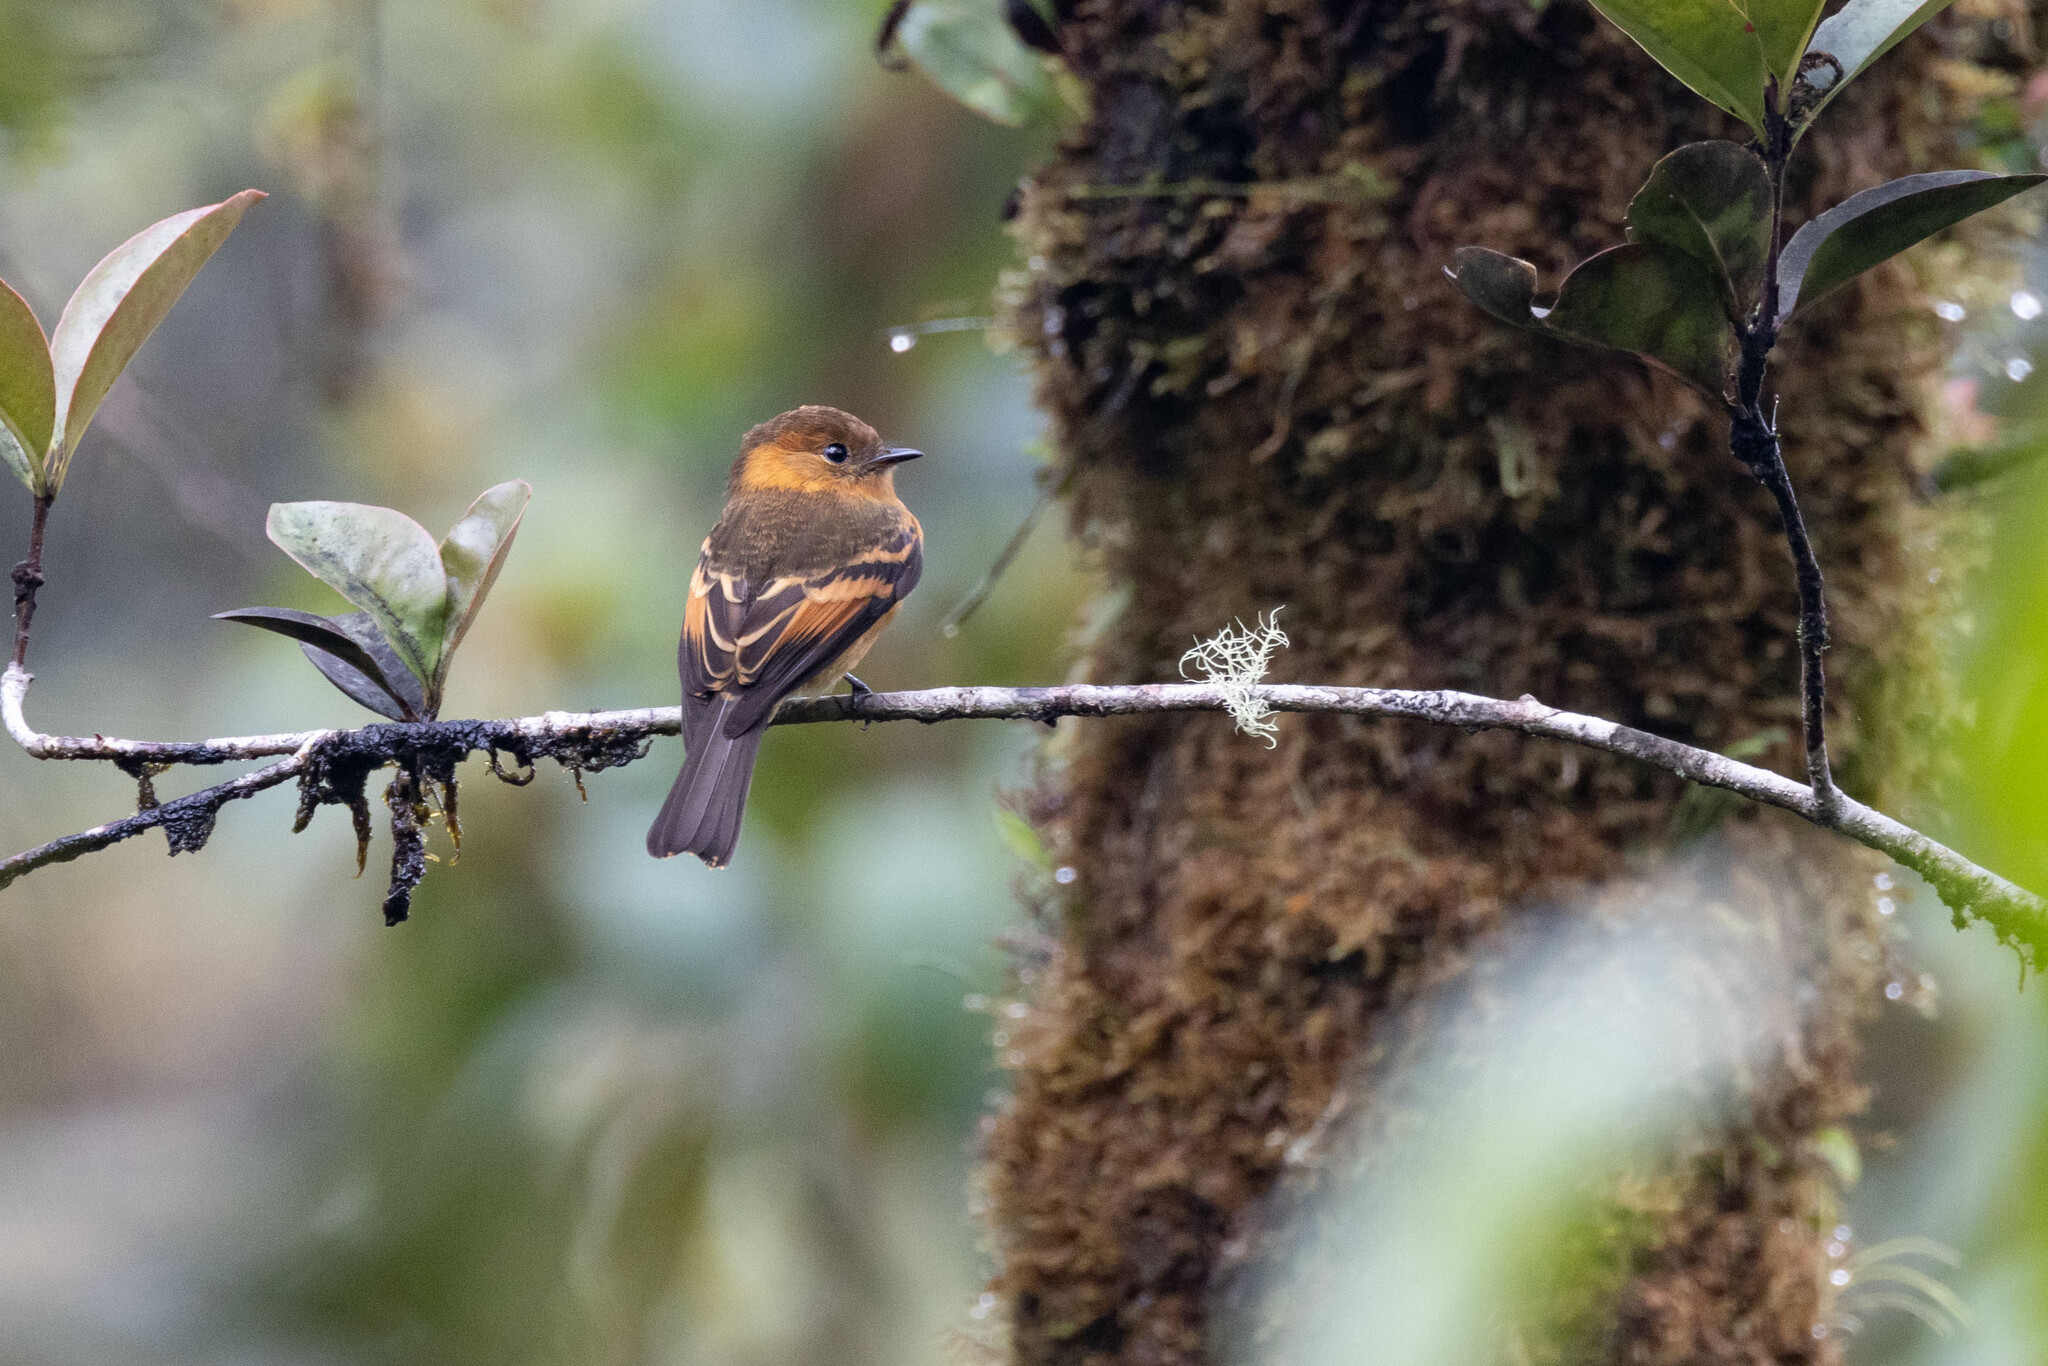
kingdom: Animalia
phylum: Chordata
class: Aves
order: Passeriformes
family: Tyrannidae
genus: Pyrrhomyias
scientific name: Pyrrhomyias cinnamomeus
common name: Cinnamon flycatcher
